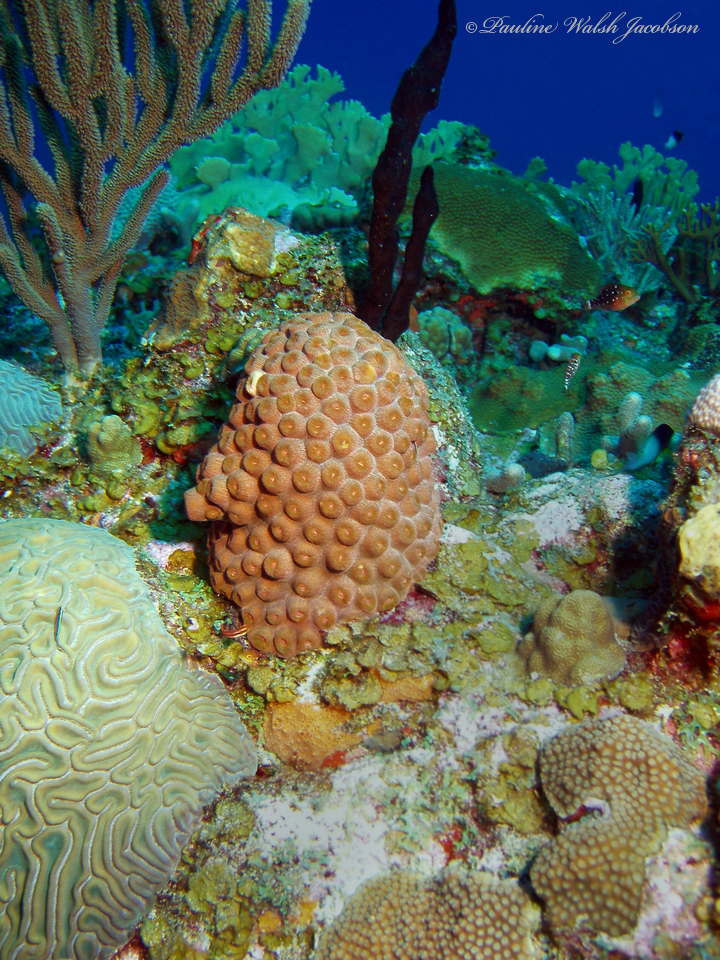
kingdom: Animalia
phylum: Cnidaria
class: Anthozoa
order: Scleractinia
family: Montastraeidae
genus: Montastraea
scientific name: Montastraea cavernosa
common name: Great star coral
